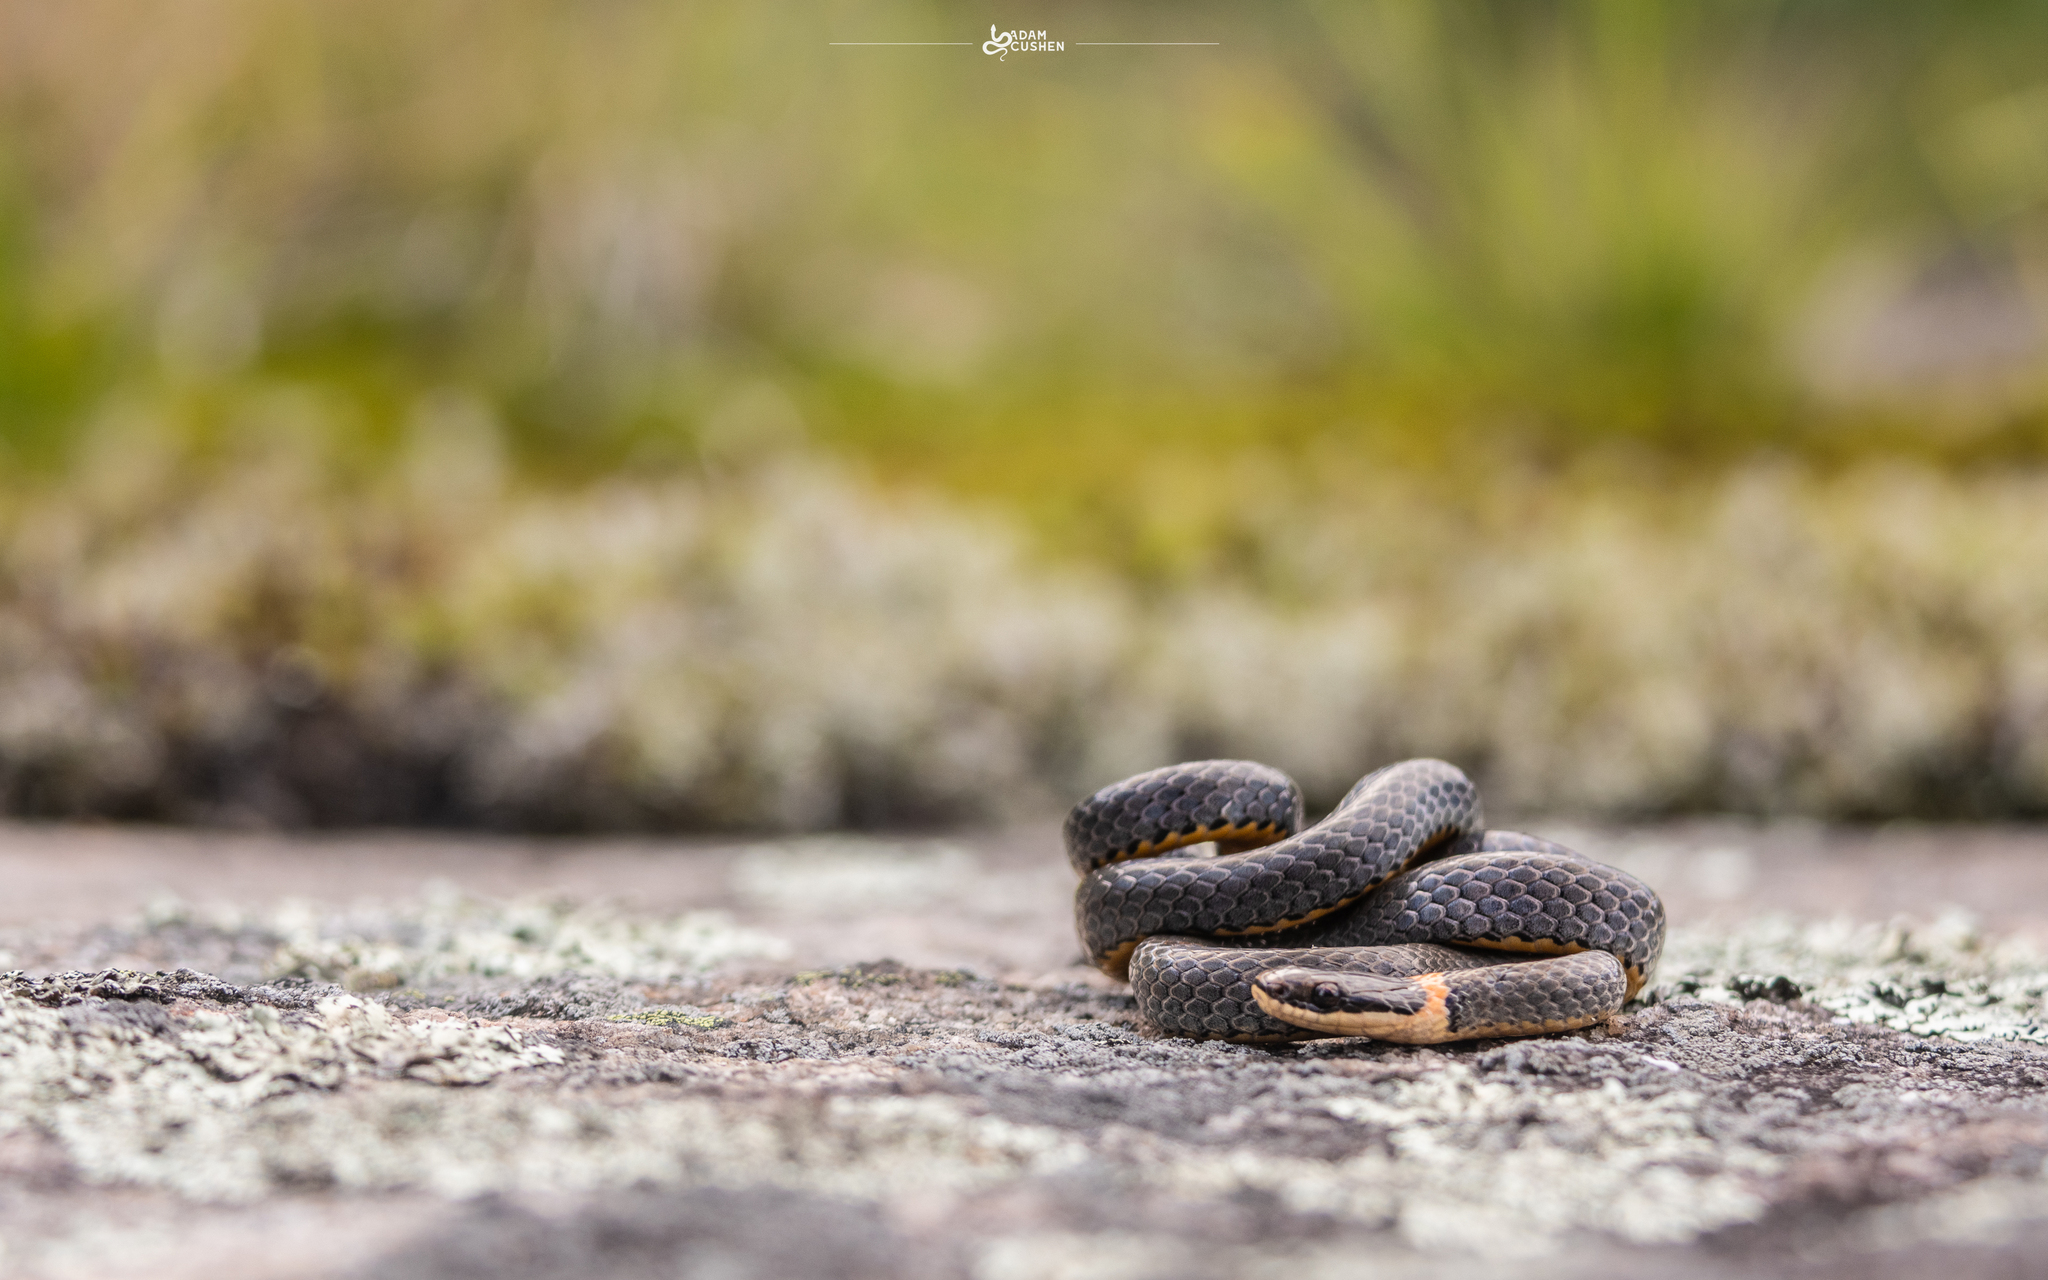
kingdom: Animalia
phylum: Chordata
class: Squamata
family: Colubridae
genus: Diadophis
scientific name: Diadophis punctatus
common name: Ringneck snake
